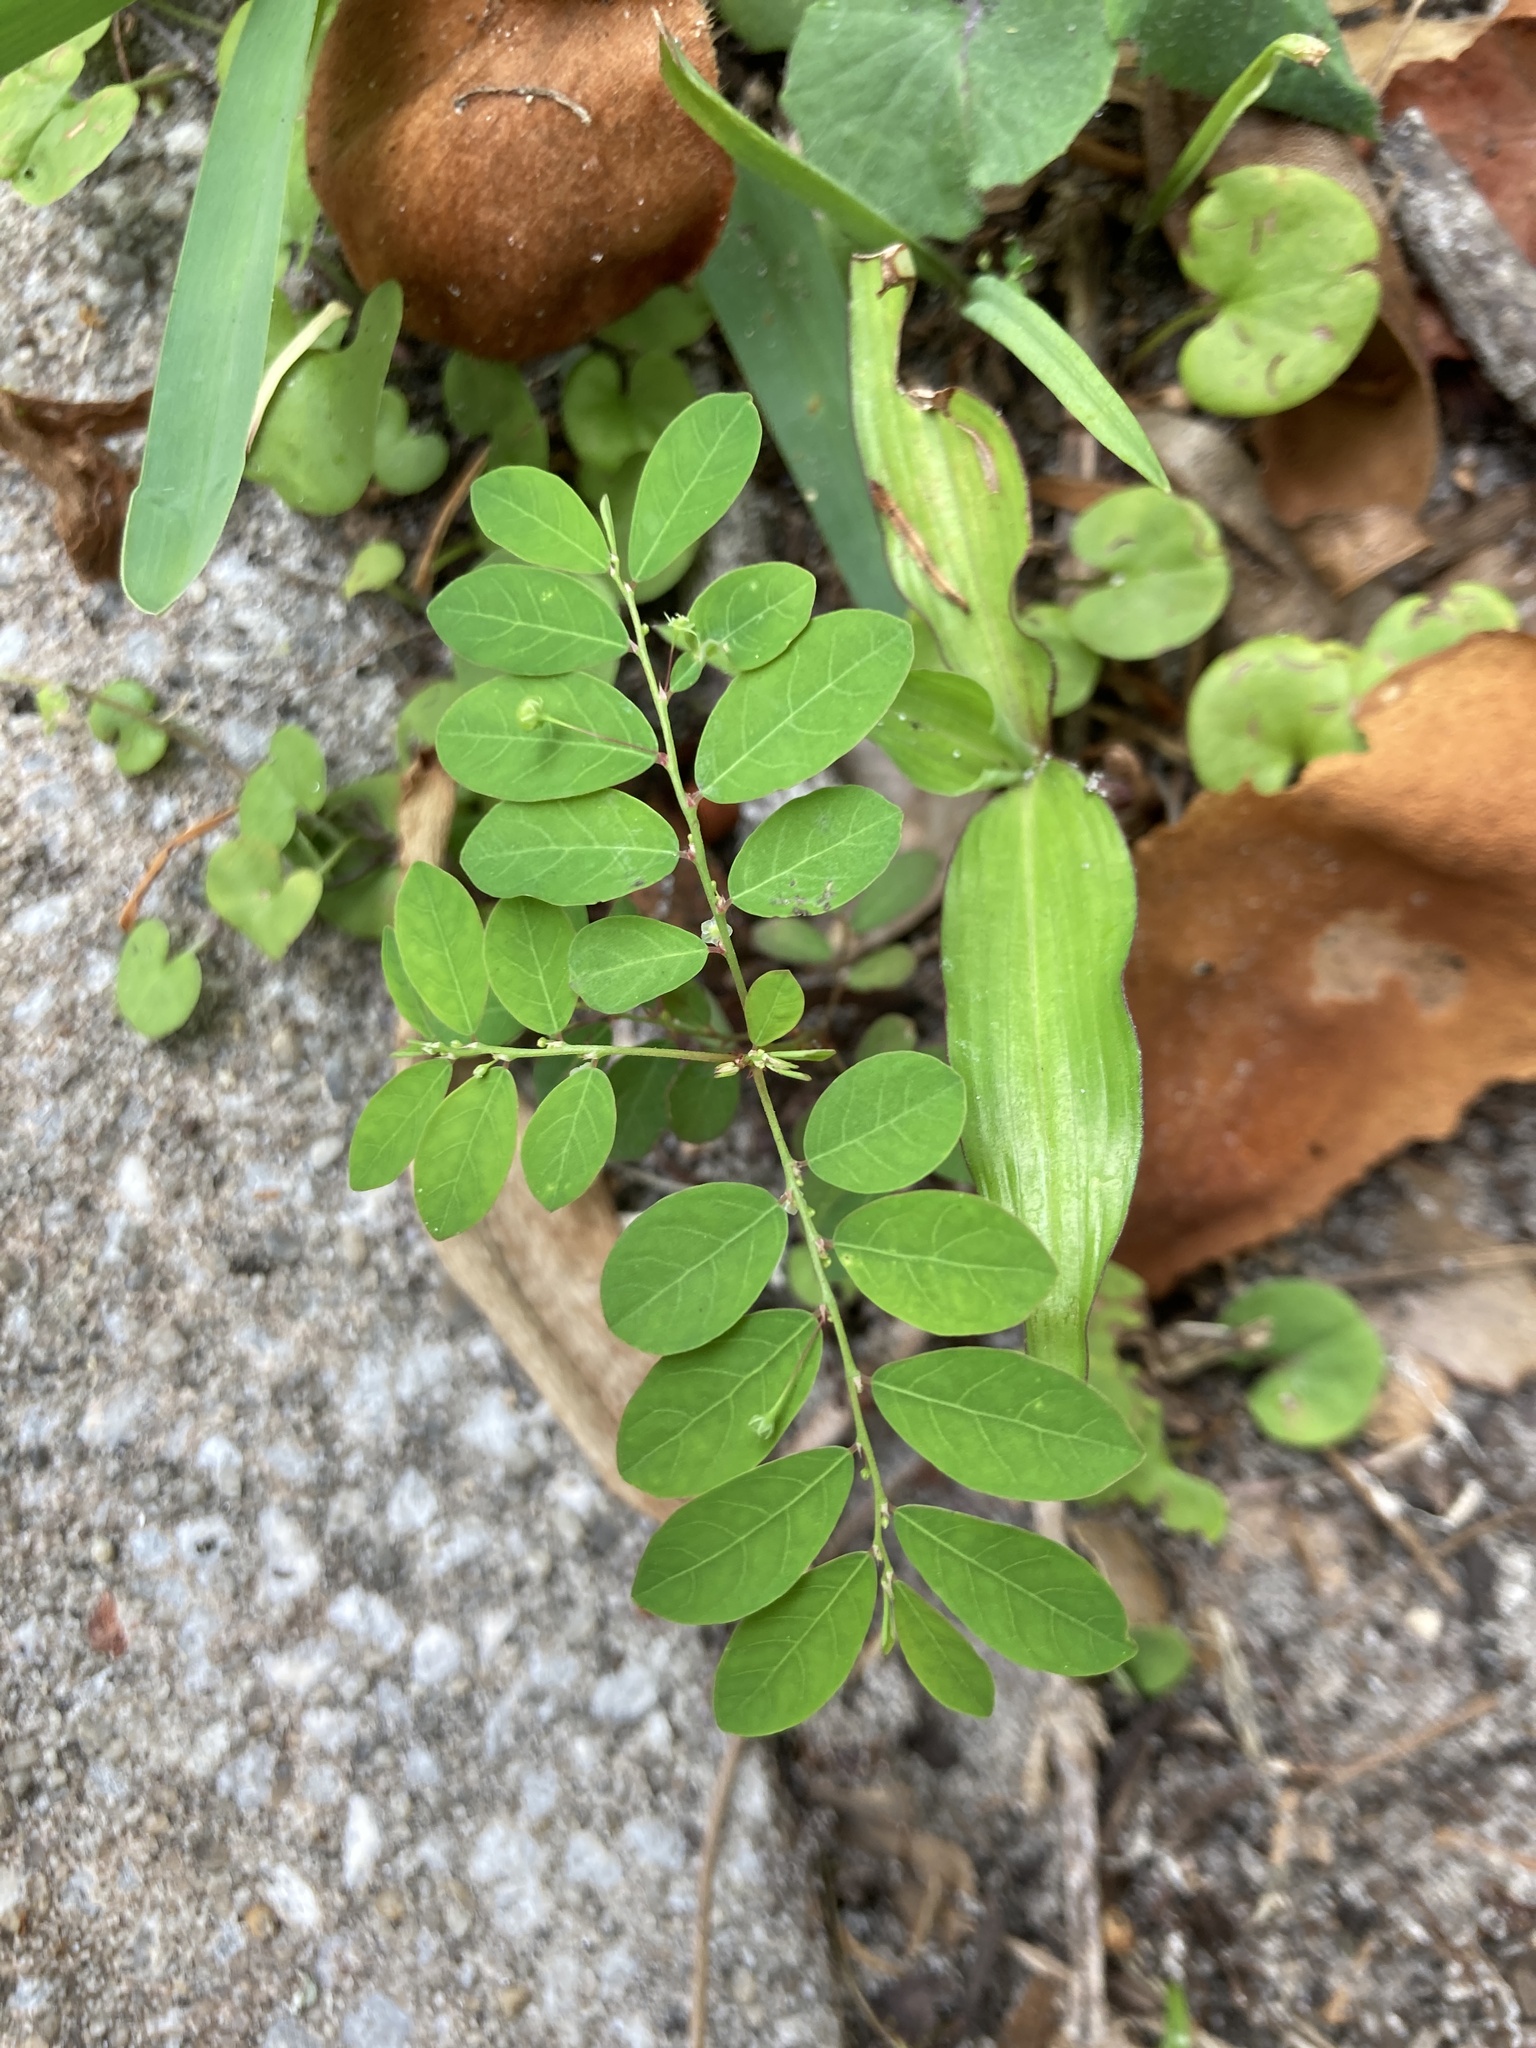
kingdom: Plantae
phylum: Tracheophyta
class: Magnoliopsida
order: Malpighiales
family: Phyllanthaceae
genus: Phyllanthus
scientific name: Phyllanthus tenellus
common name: Mascarene island leaf-flower
